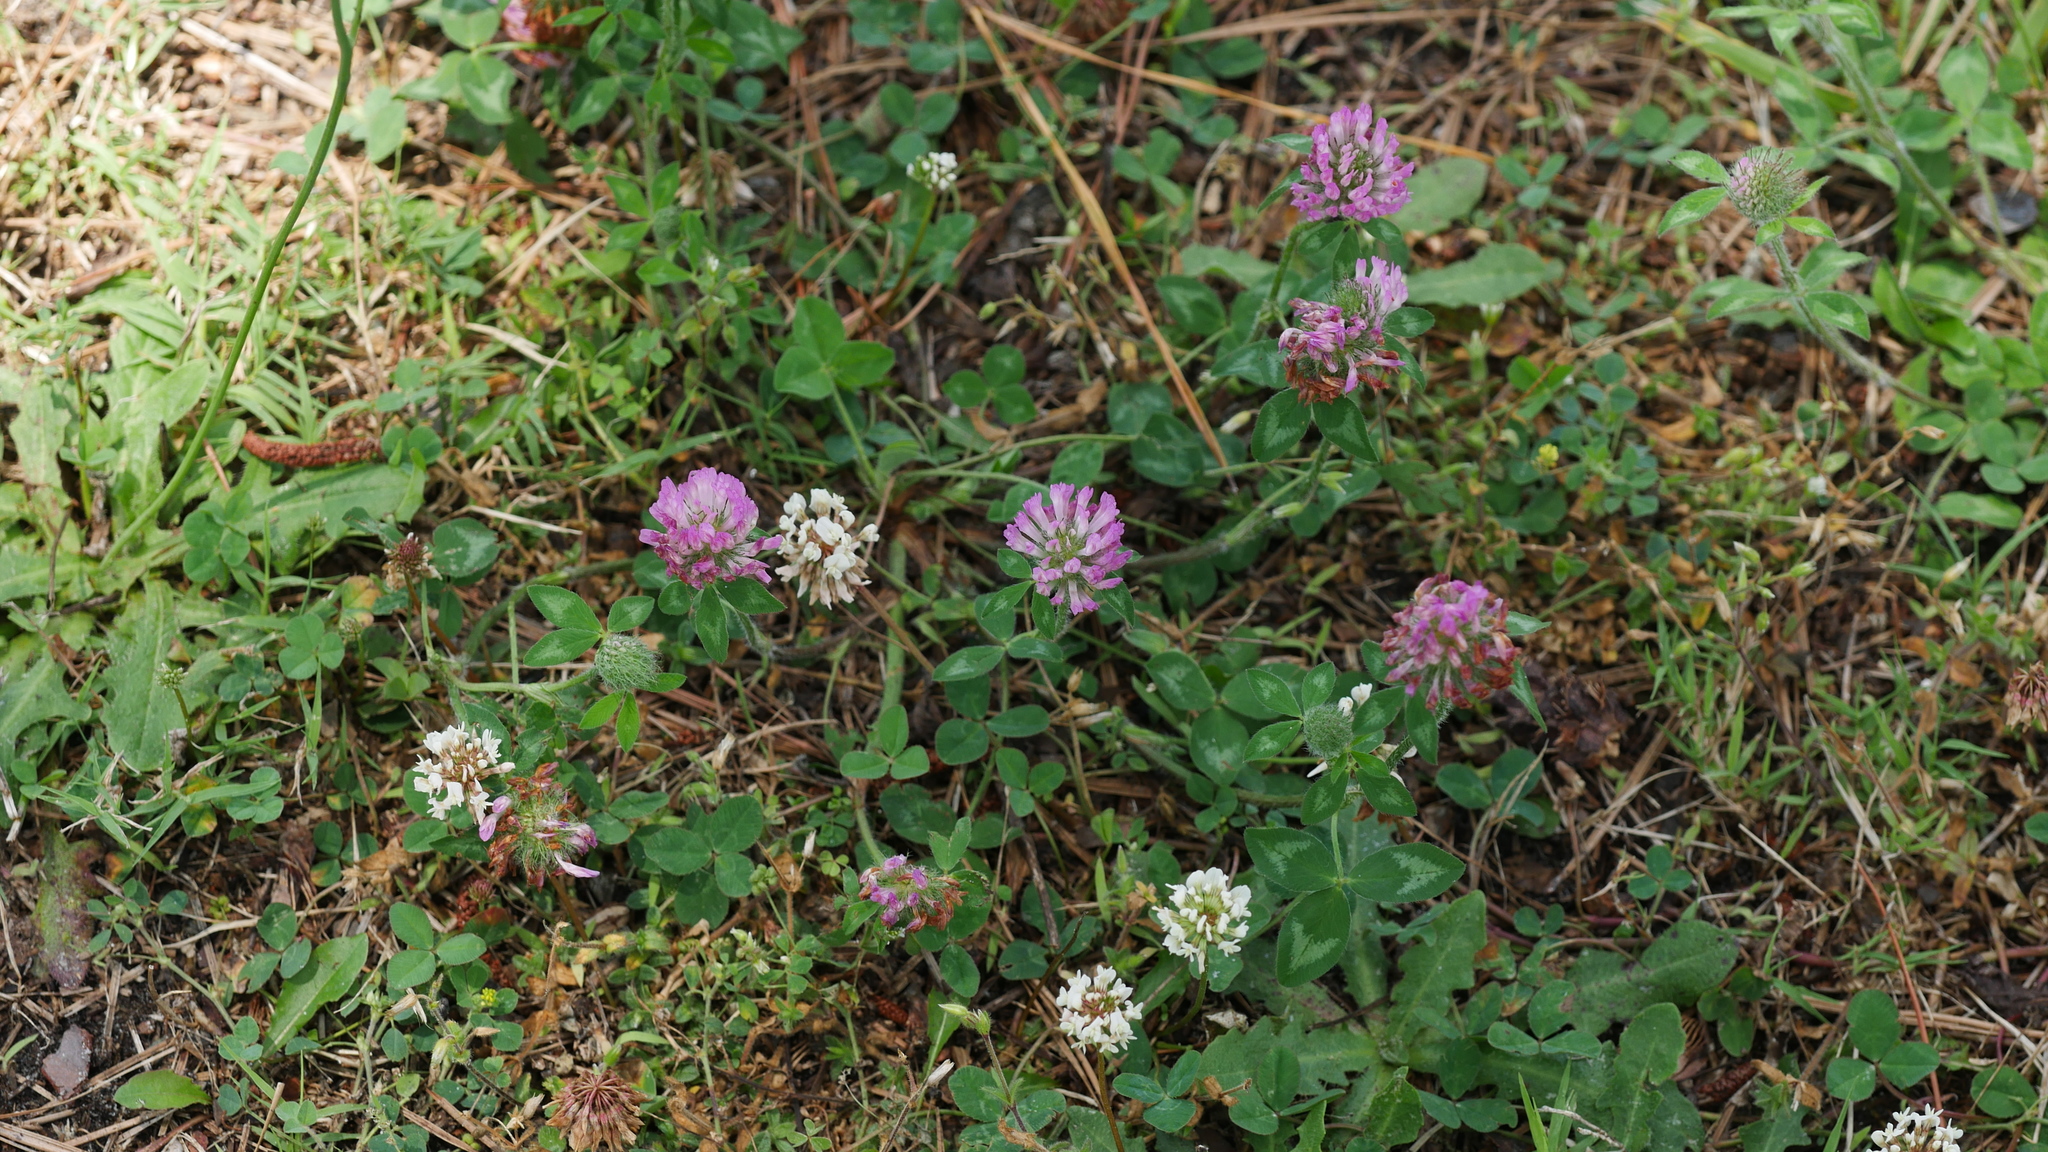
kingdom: Plantae
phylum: Tracheophyta
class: Magnoliopsida
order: Fabales
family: Fabaceae
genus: Trifolium
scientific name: Trifolium pratense
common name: Red clover
